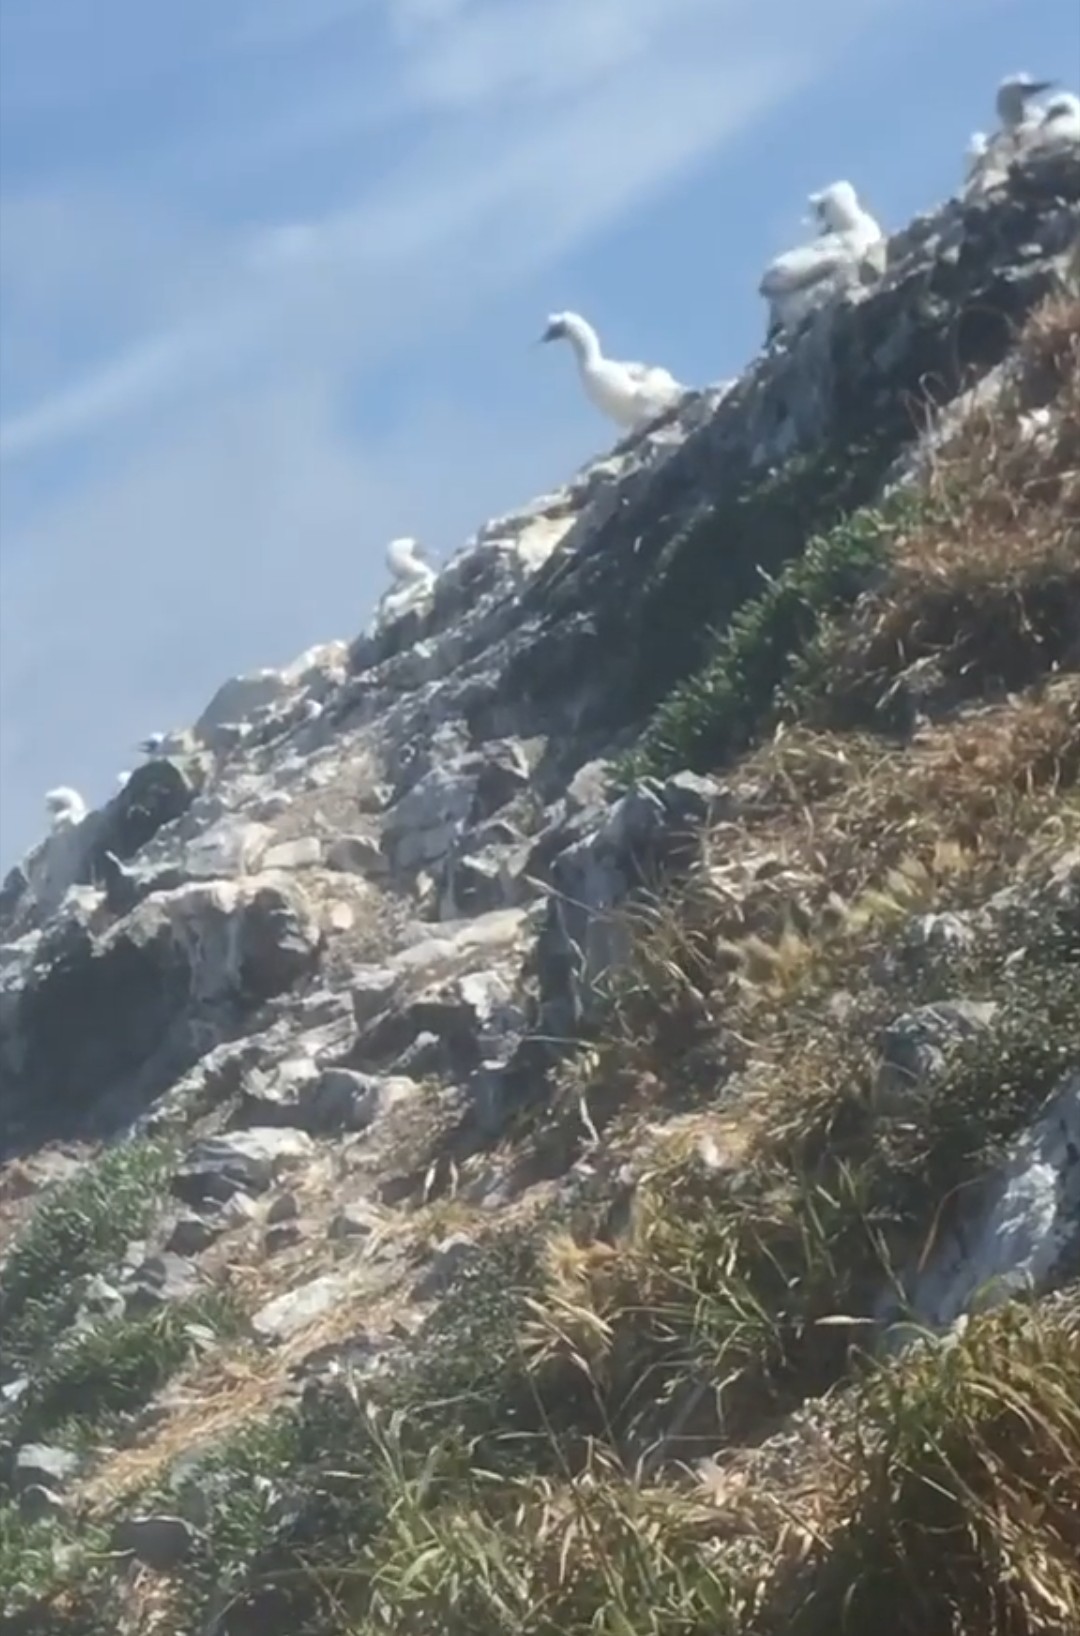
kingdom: Animalia
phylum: Chordata
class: Aves
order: Suliformes
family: Sulidae
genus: Morus
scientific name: Morus serrator
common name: Australasian gannet
